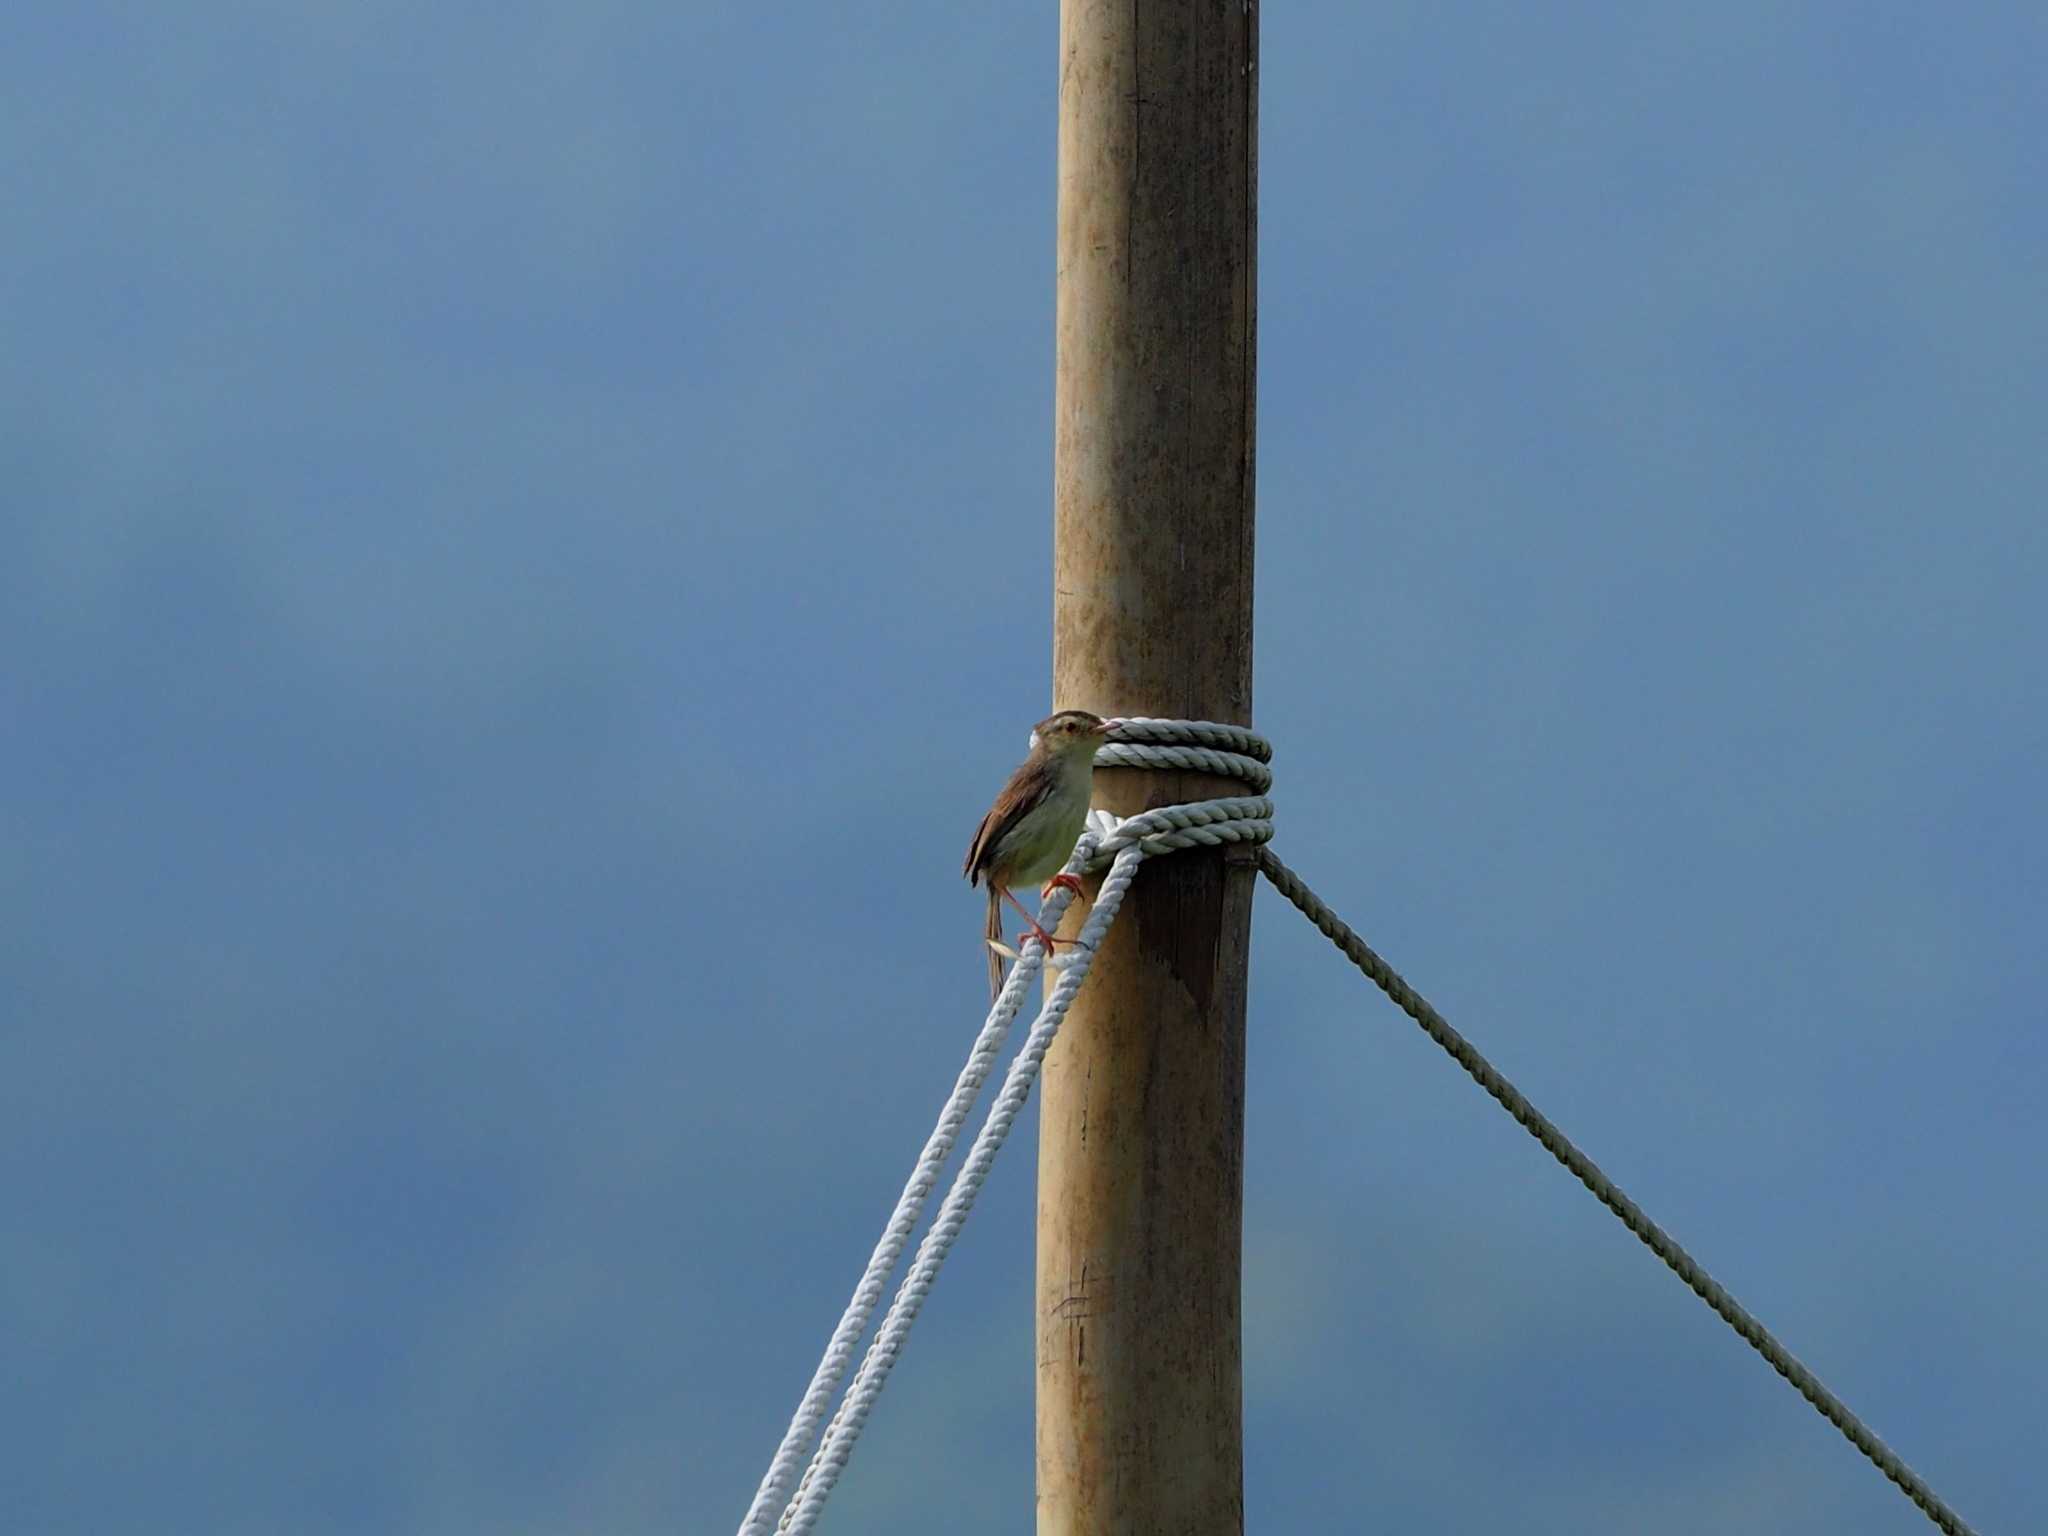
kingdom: Animalia
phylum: Chordata
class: Aves
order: Passeriformes
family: Cisticolidae
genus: Prinia
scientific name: Prinia inornata
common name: Plain prinia
